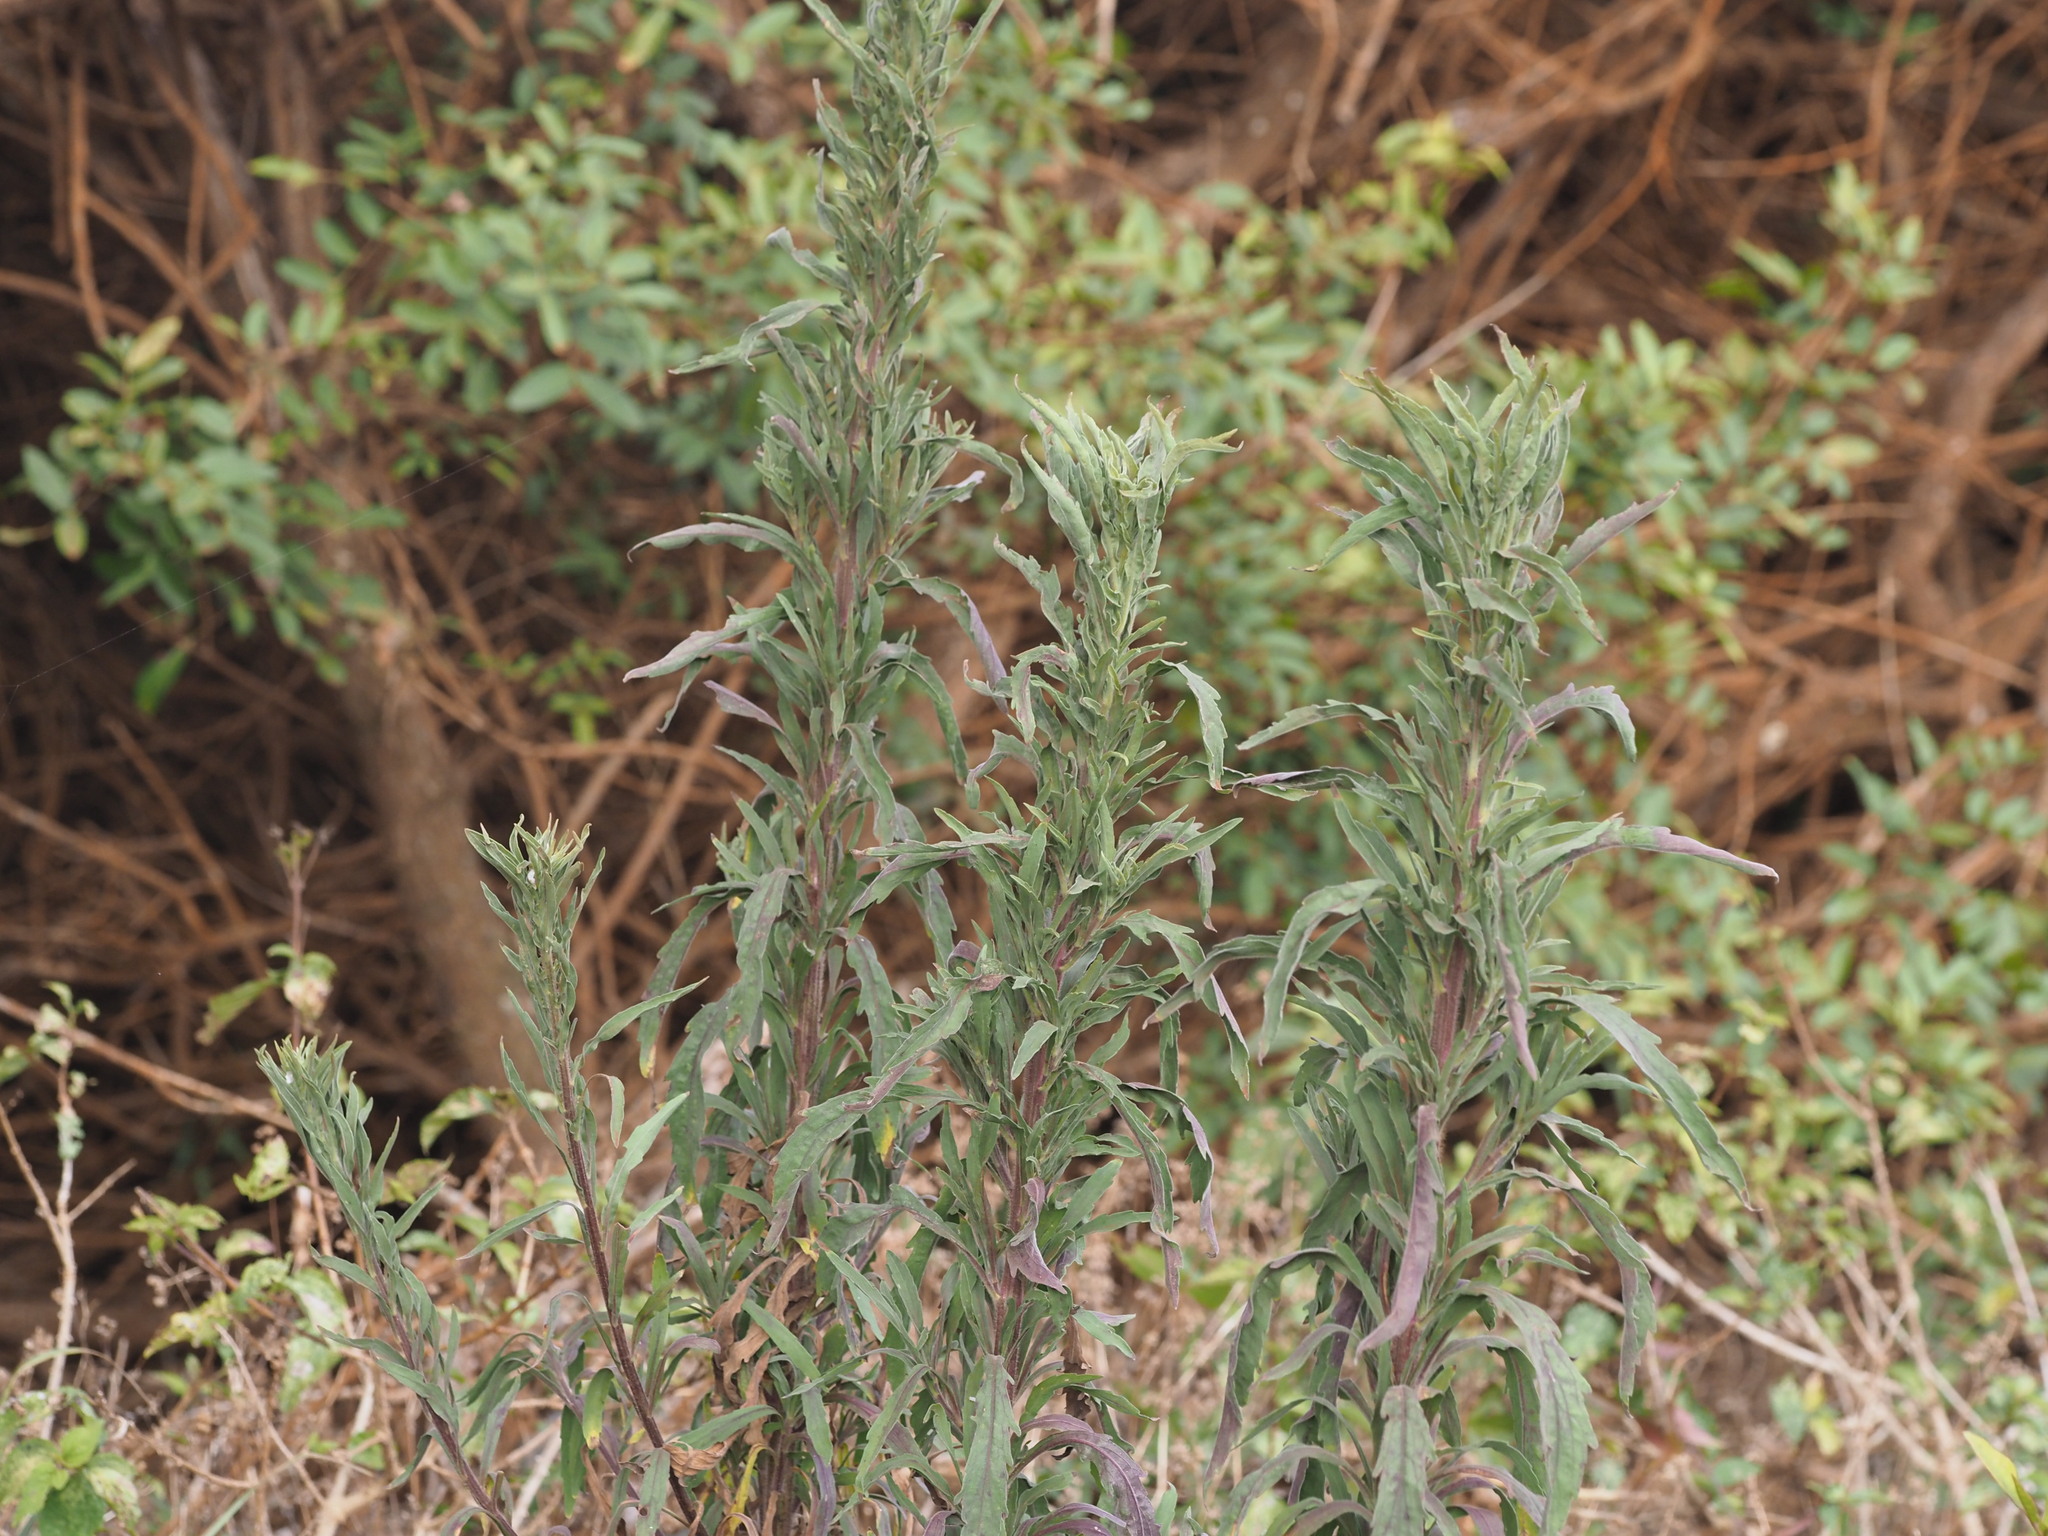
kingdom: Plantae
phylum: Tracheophyta
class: Magnoliopsida
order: Asterales
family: Asteraceae
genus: Erigeron
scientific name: Erigeron sumatrensis
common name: Daisy
